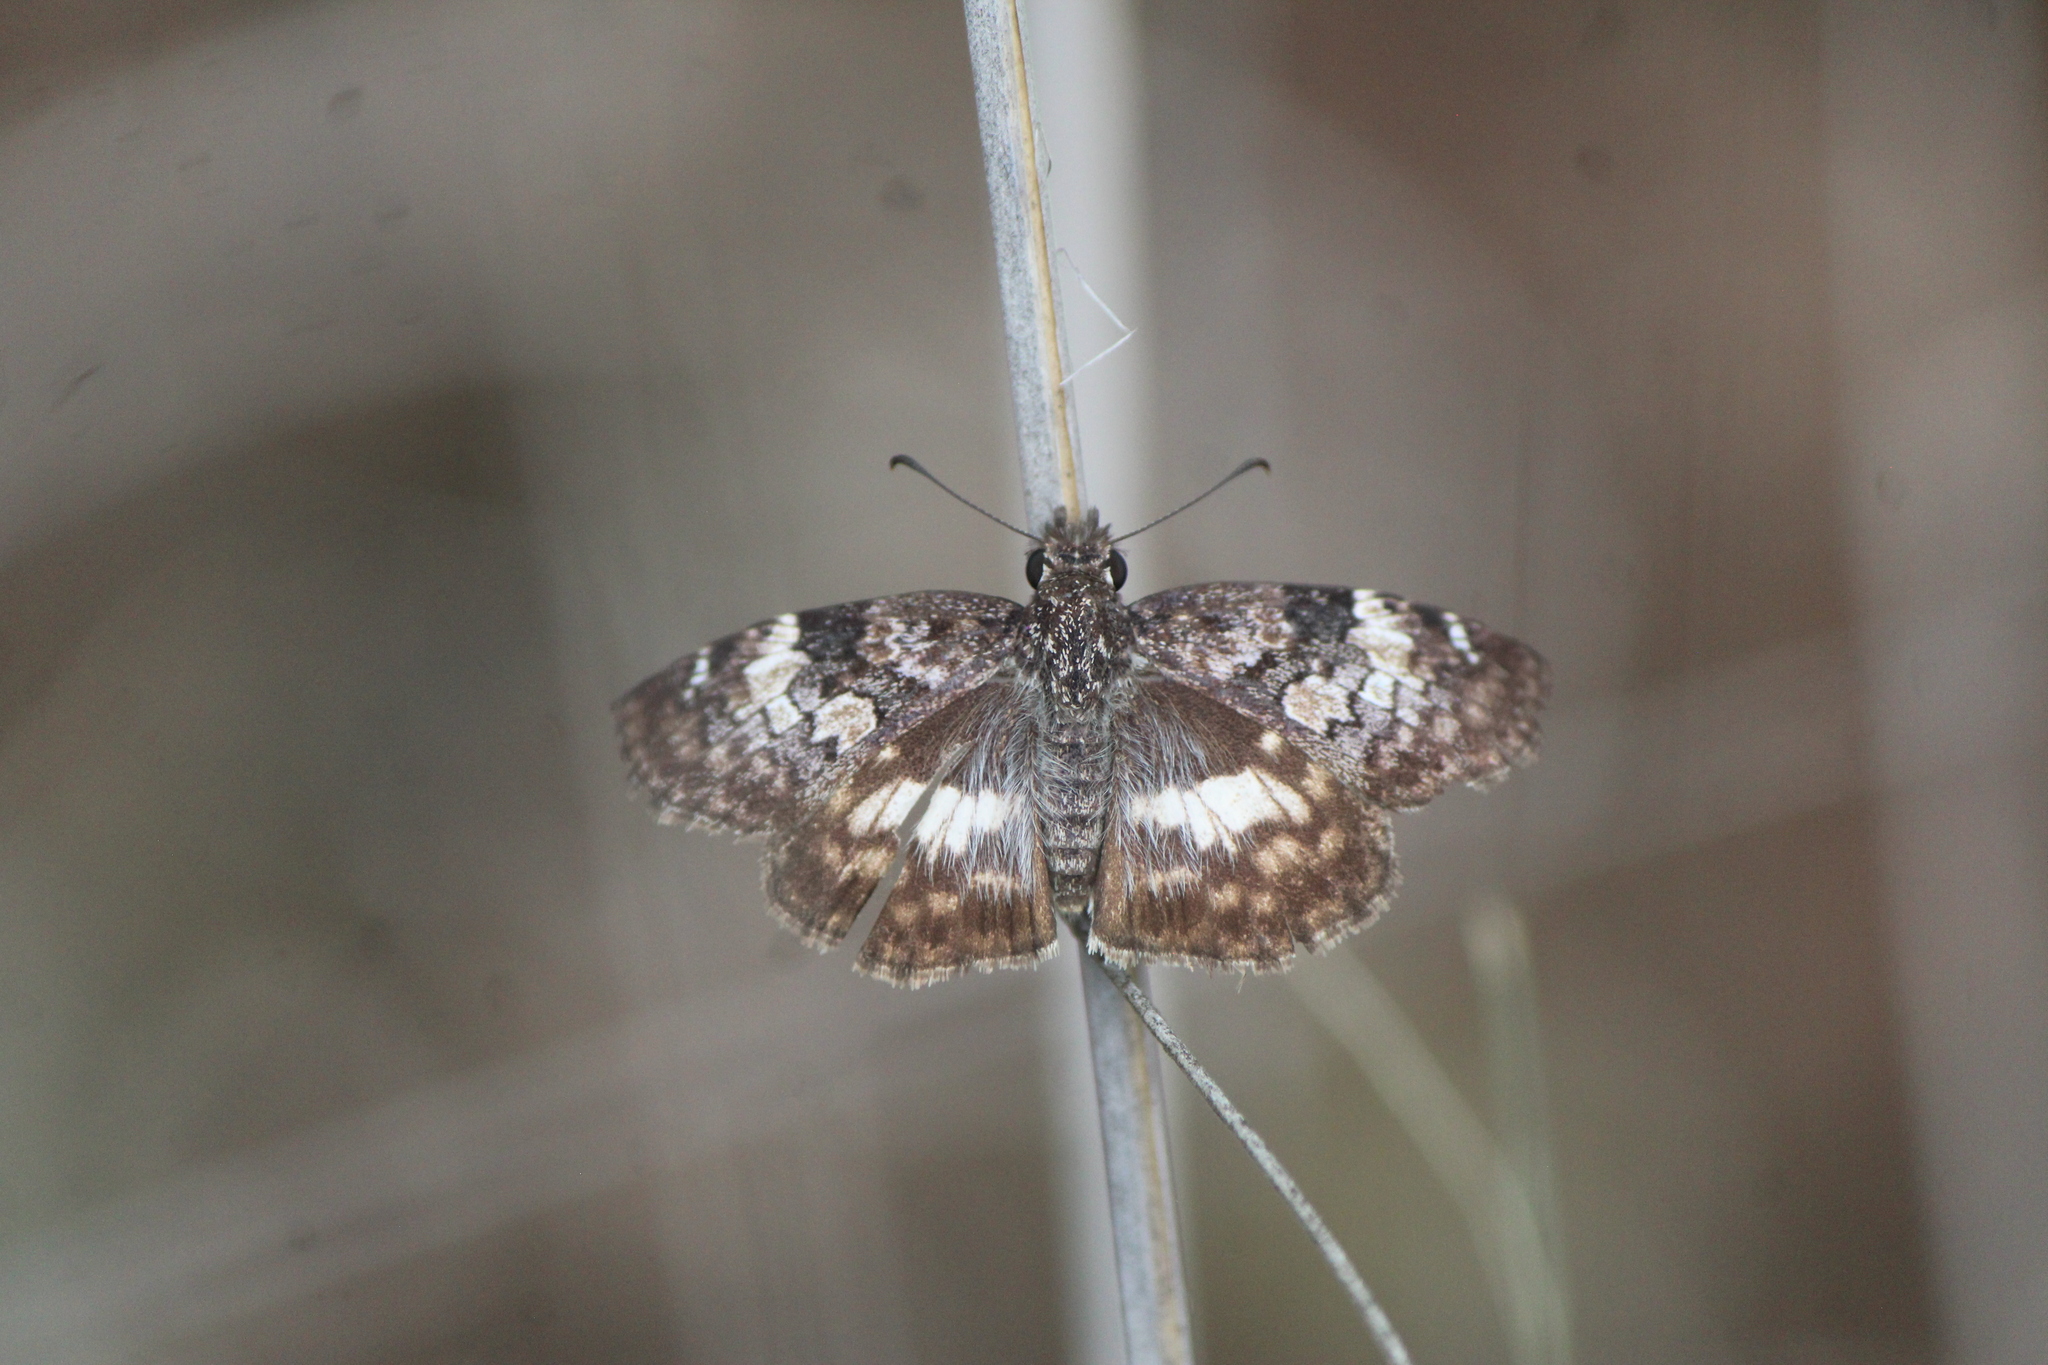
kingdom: Animalia
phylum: Arthropoda
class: Insecta
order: Lepidoptera
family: Hesperiidae
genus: Chiothion
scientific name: Chiothion georgina
